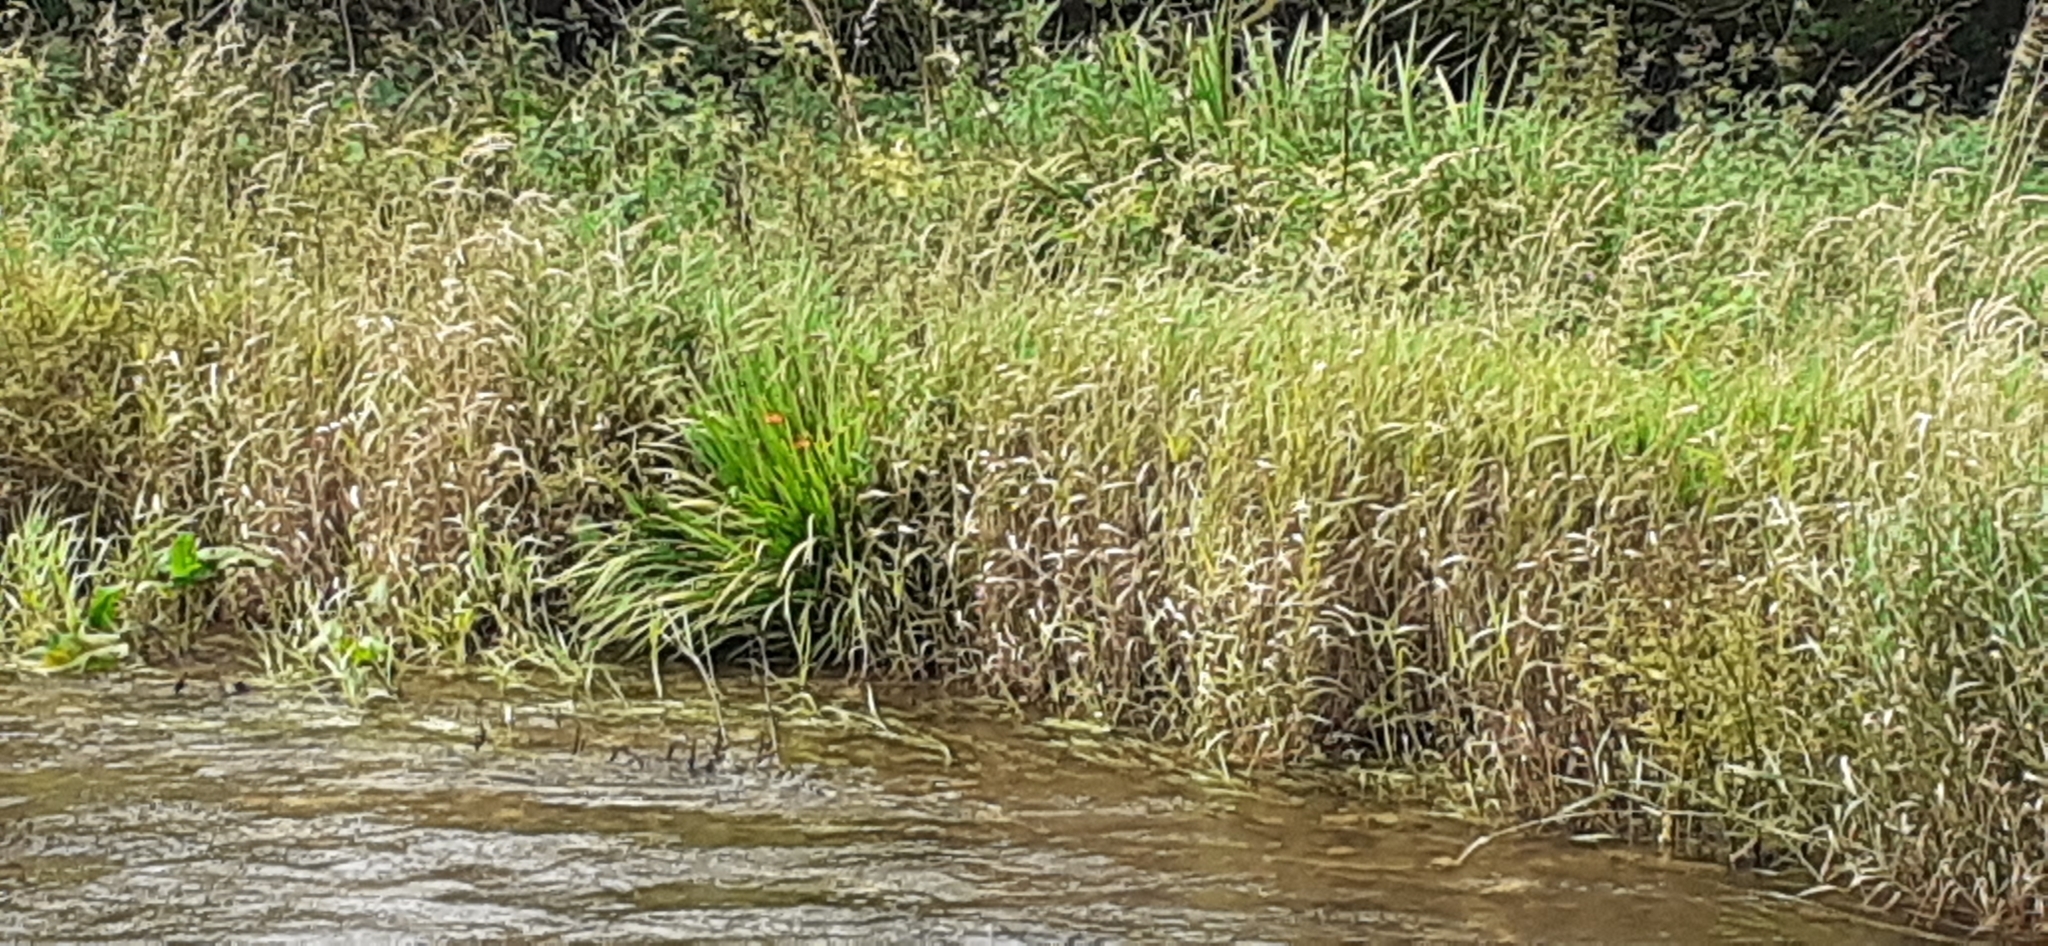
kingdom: Plantae
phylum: Tracheophyta
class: Liliopsida
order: Asparagales
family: Iridaceae
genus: Crocosmia
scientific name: Crocosmia crocosmiiflora
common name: Montbretia
